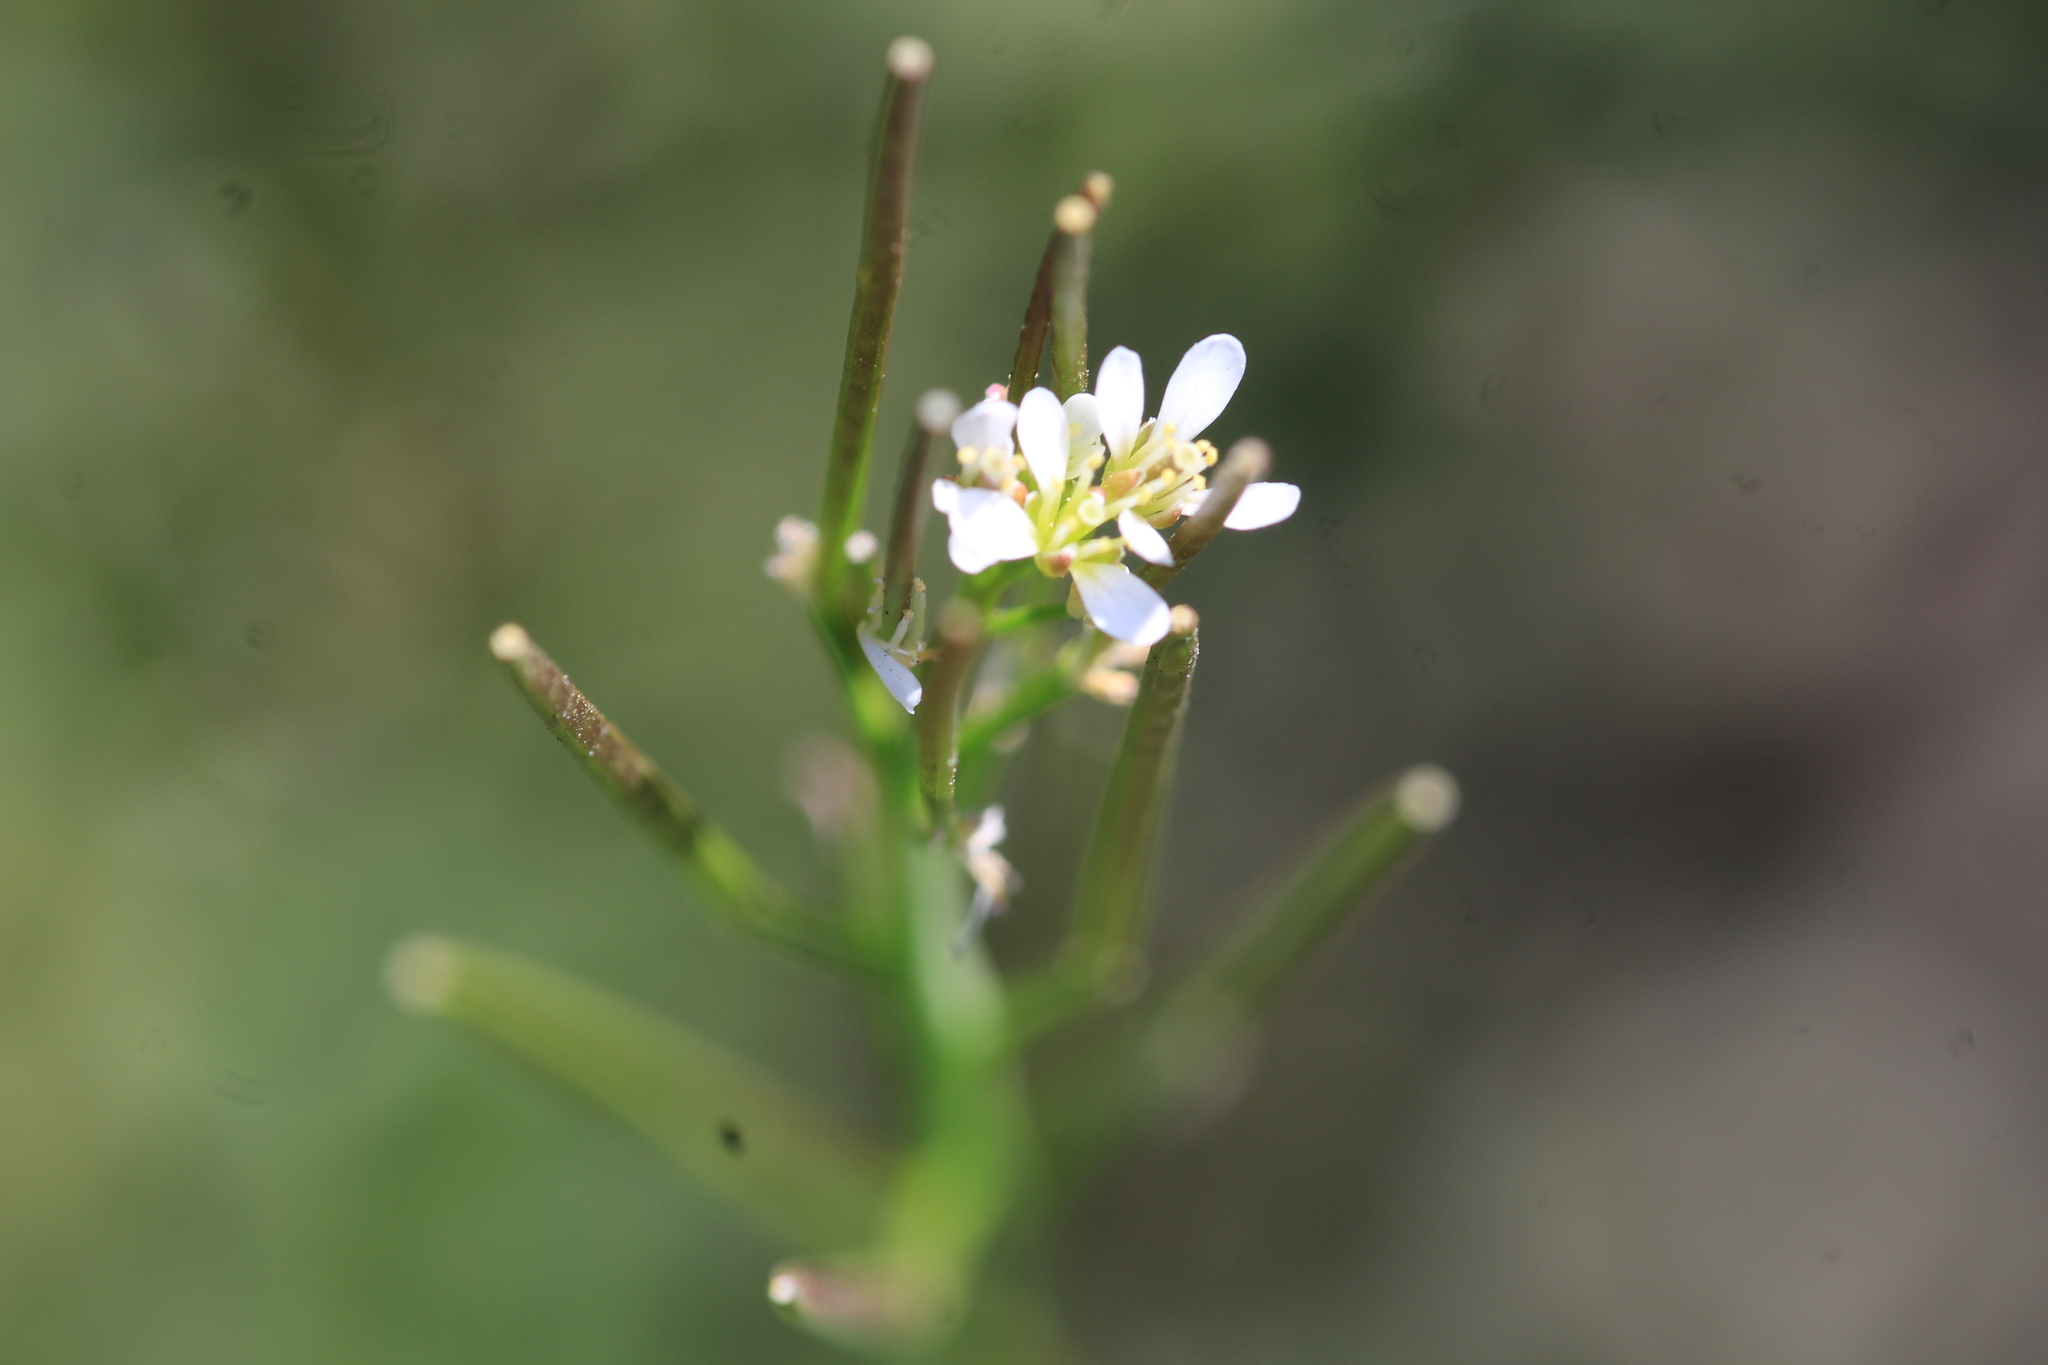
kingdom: Plantae
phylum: Tracheophyta
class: Magnoliopsida
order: Brassicales
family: Brassicaceae
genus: Cardamine
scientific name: Cardamine hirsuta
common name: Hairy bittercress
